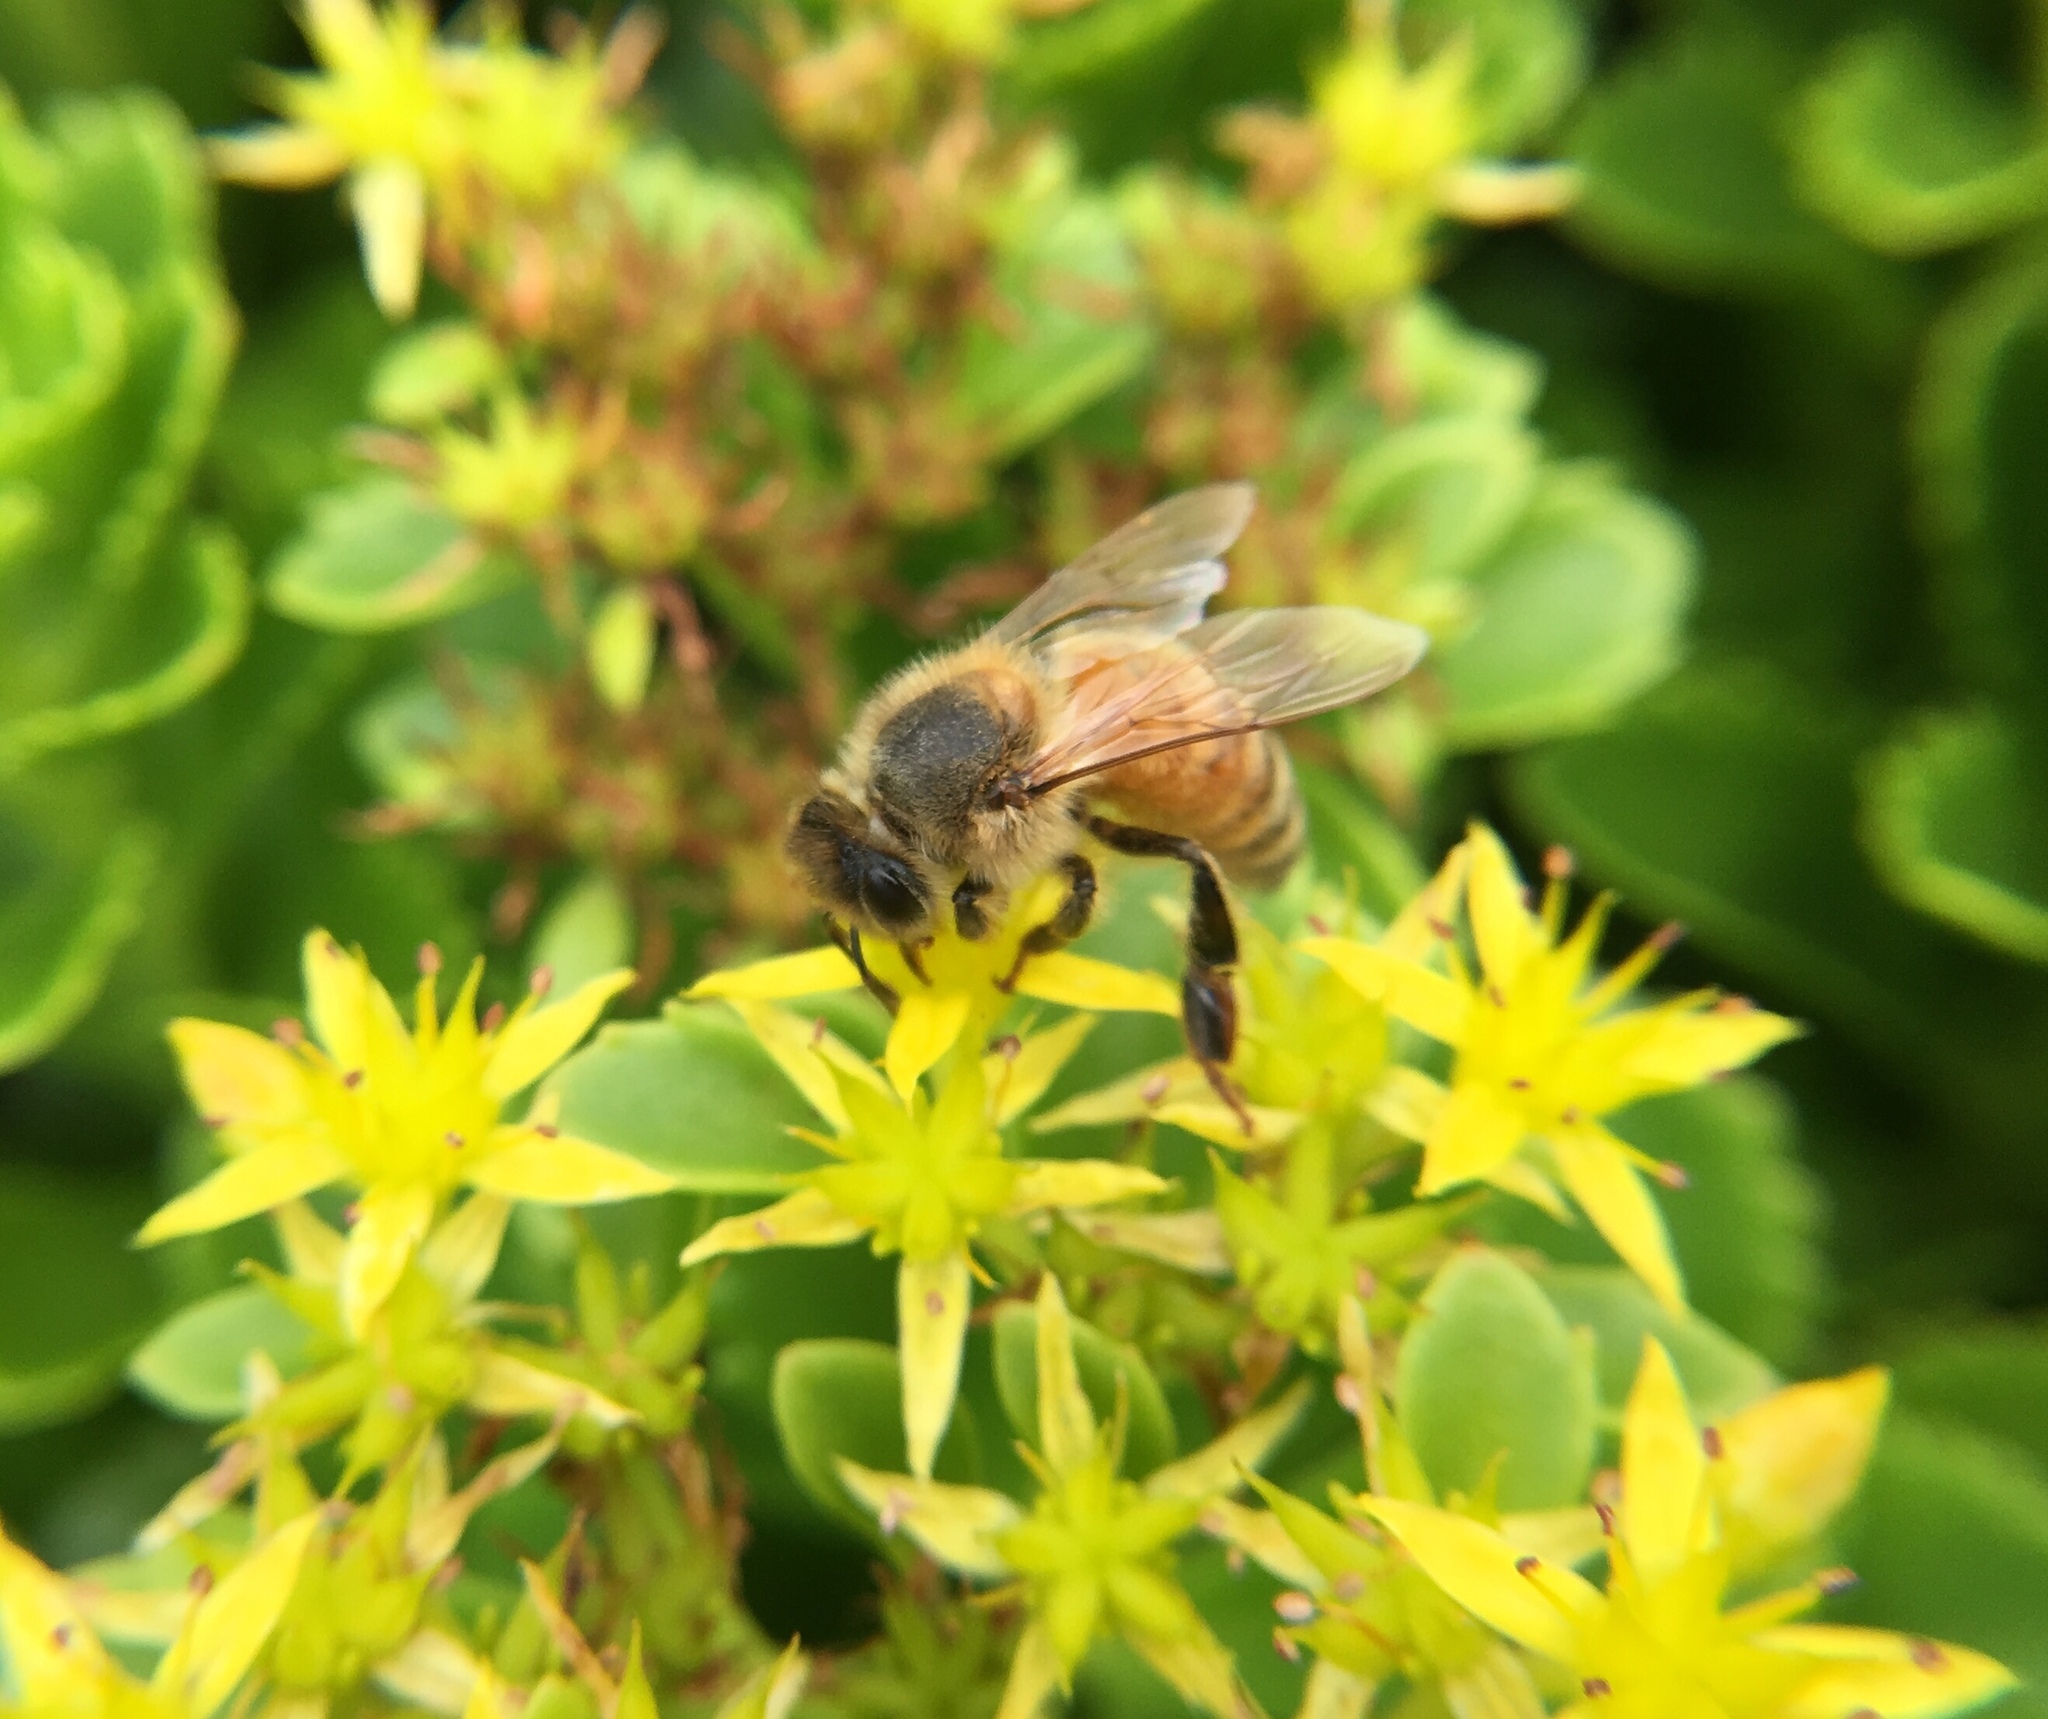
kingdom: Animalia
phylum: Arthropoda
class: Insecta
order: Hymenoptera
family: Apidae
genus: Apis
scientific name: Apis mellifera
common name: Honey bee
